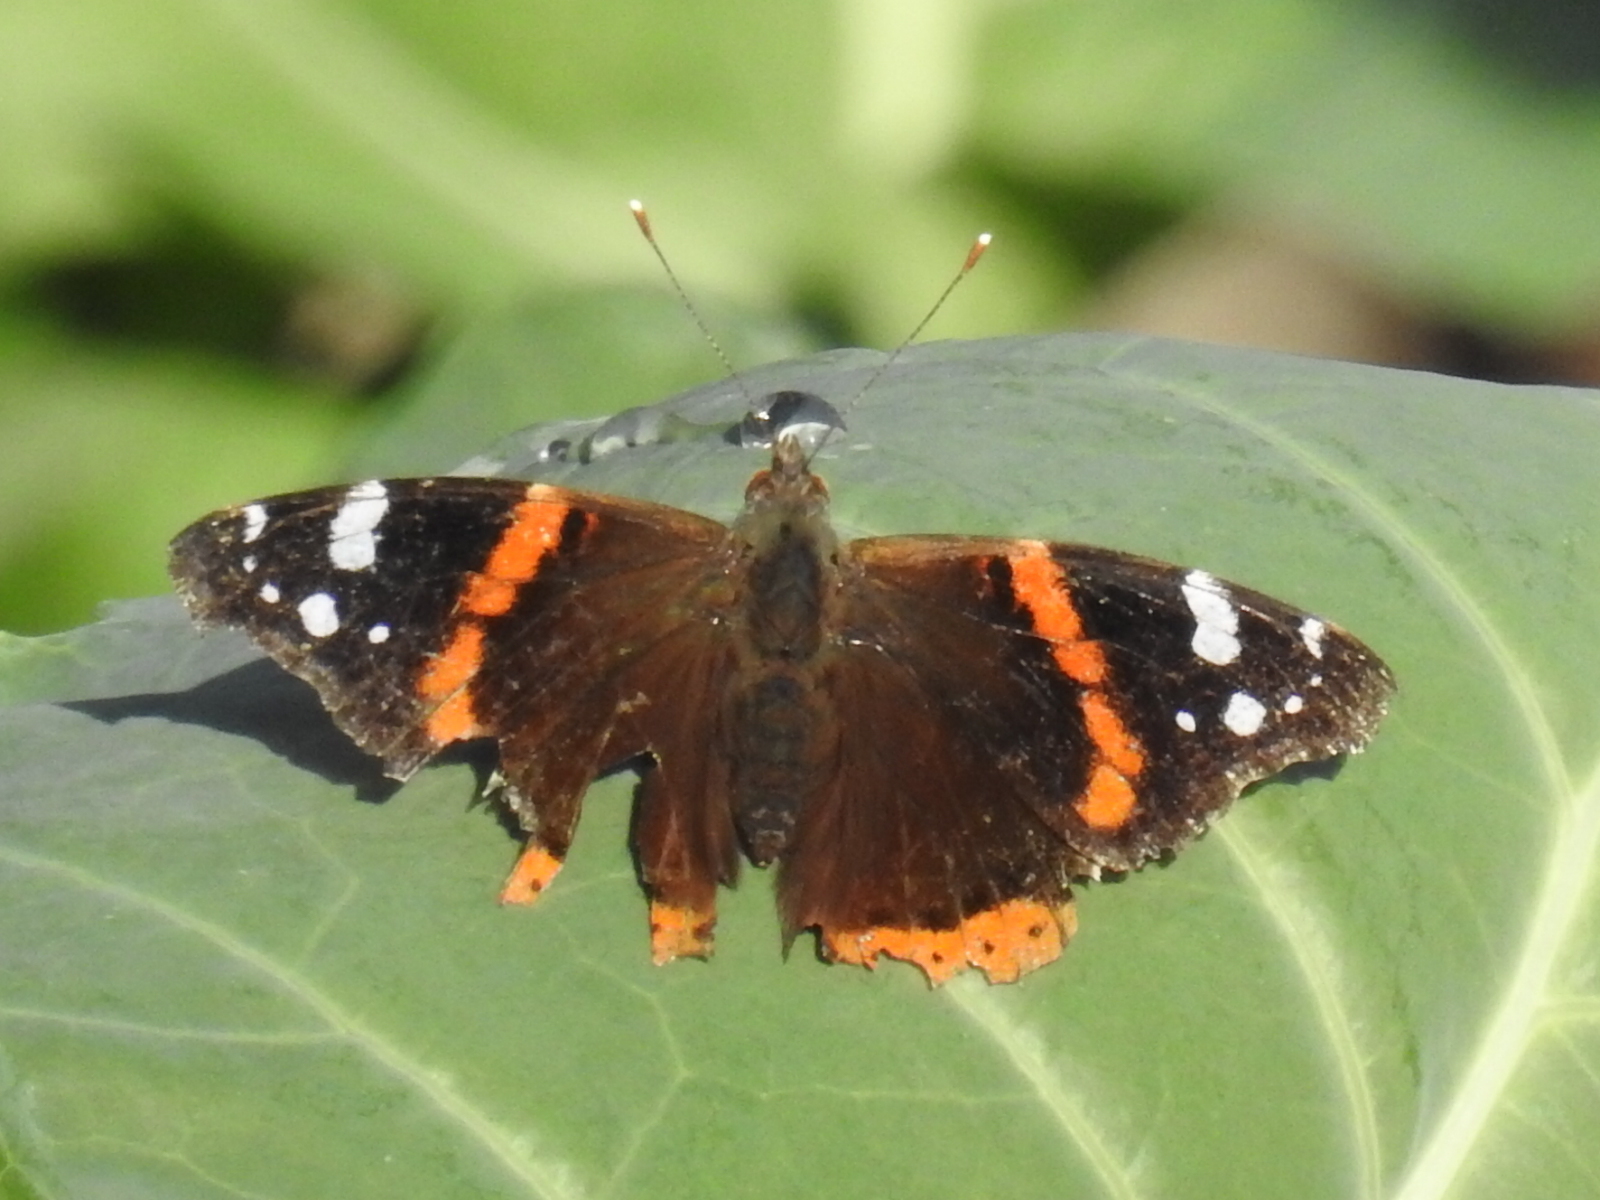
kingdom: Animalia
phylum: Arthropoda
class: Insecta
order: Lepidoptera
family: Nymphalidae
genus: Vanessa
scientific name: Vanessa atalanta
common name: Red admiral
